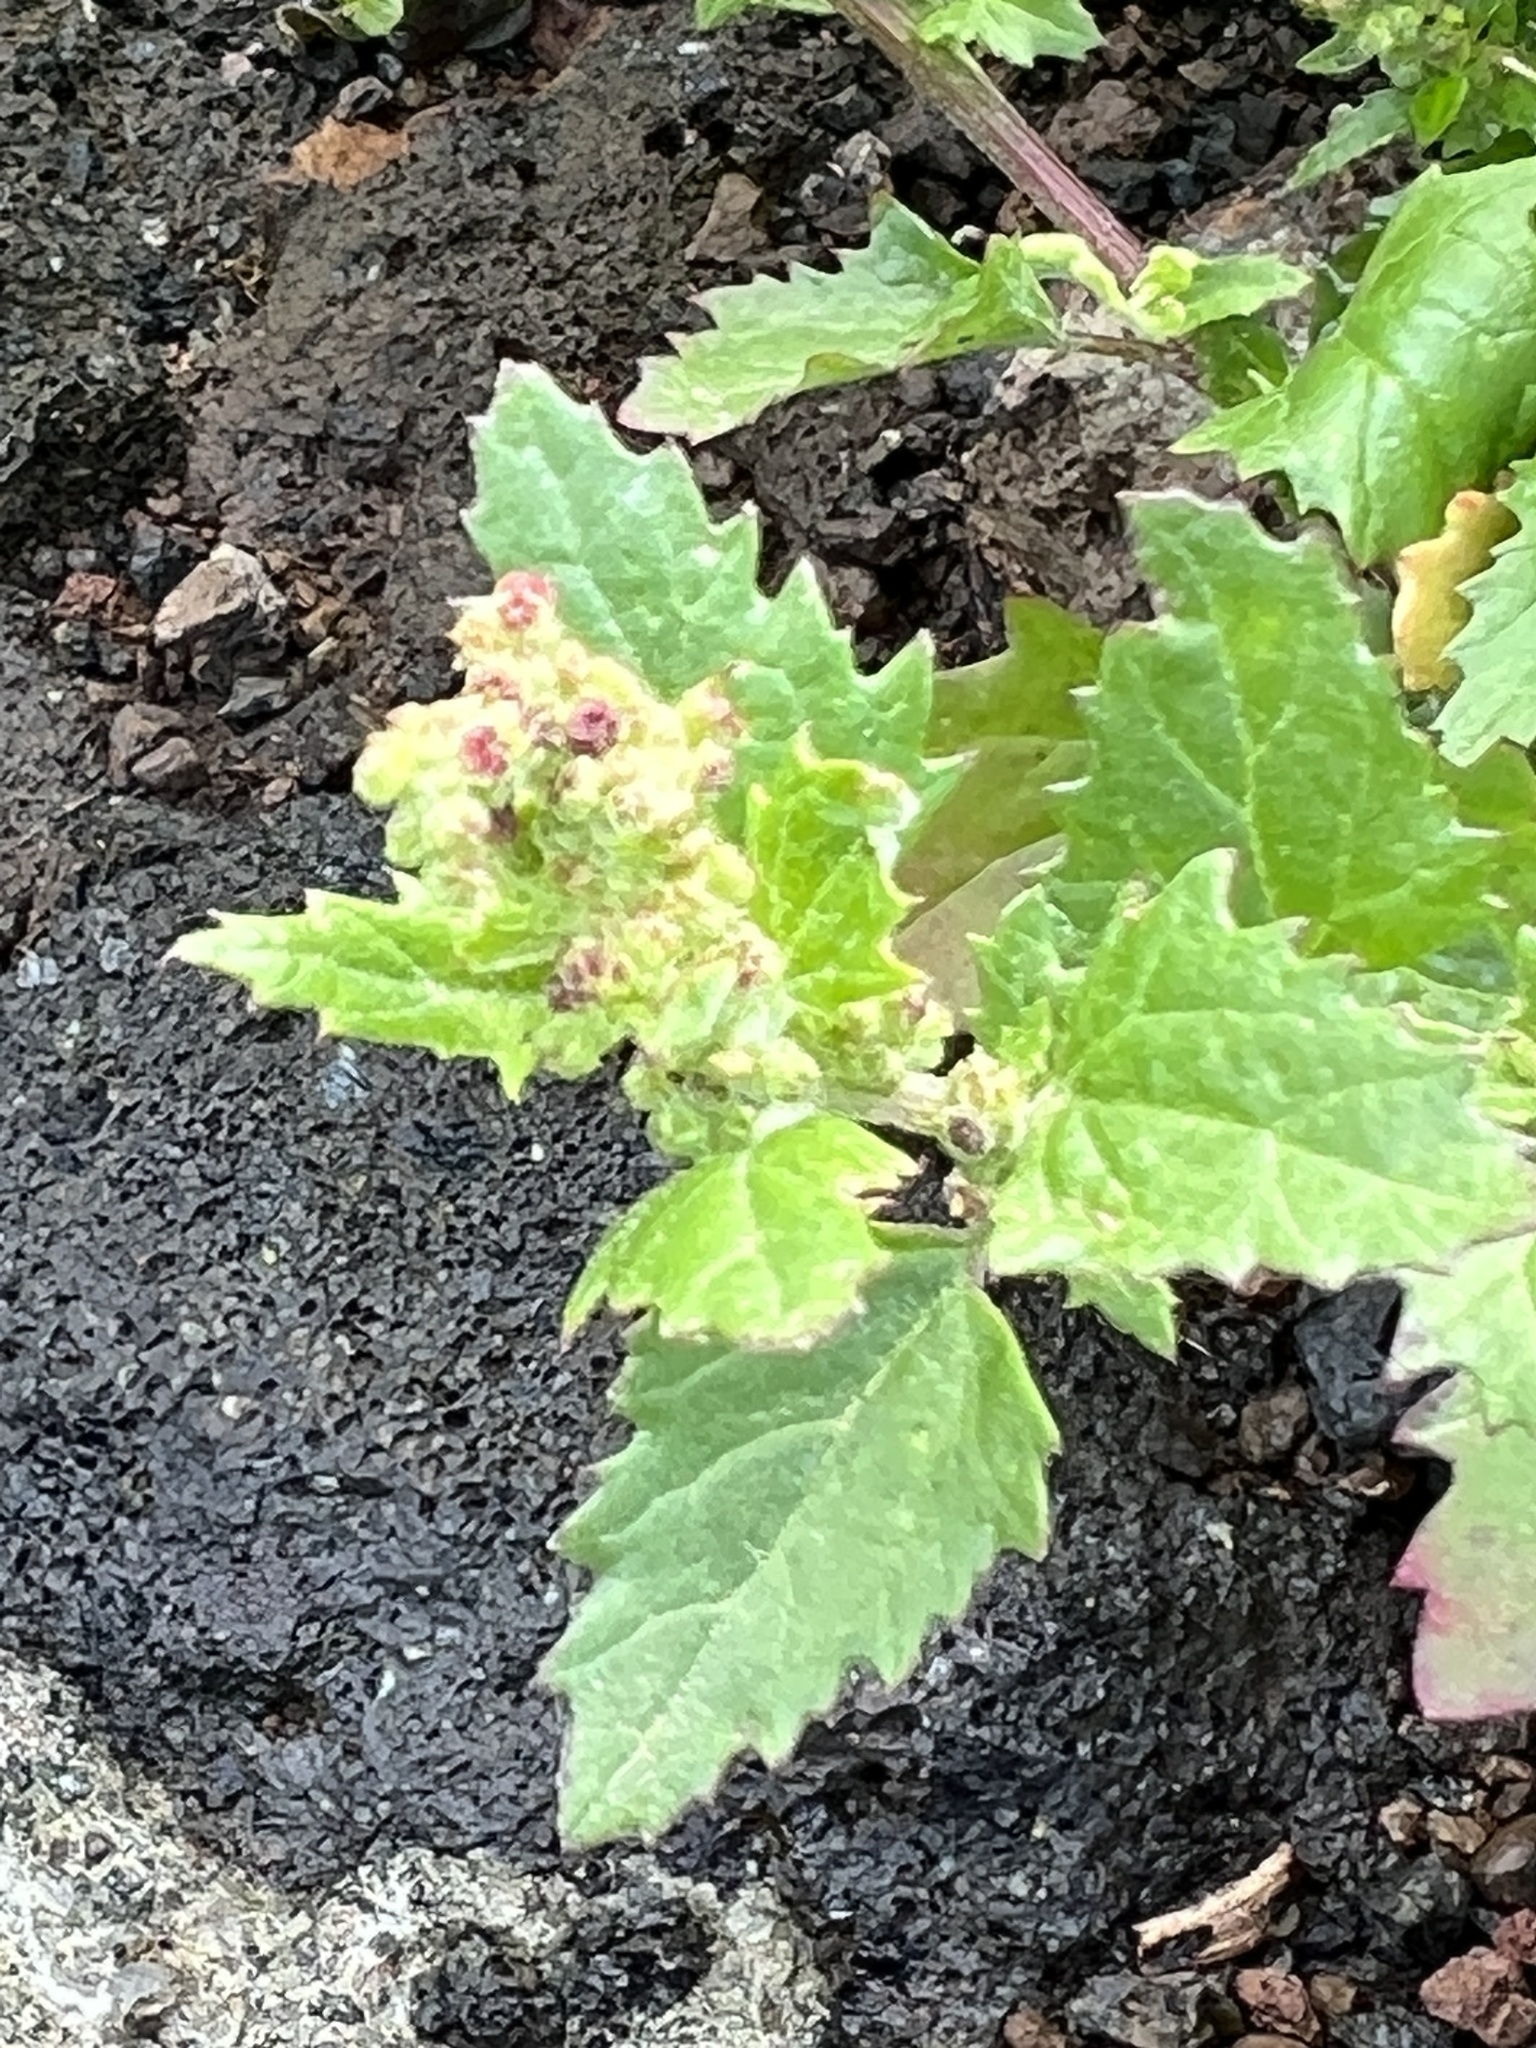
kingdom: Plantae
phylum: Tracheophyta
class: Magnoliopsida
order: Caryophyllales
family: Amaranthaceae
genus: Chenopodiastrum
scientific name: Chenopodiastrum murale
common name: Sowbane
